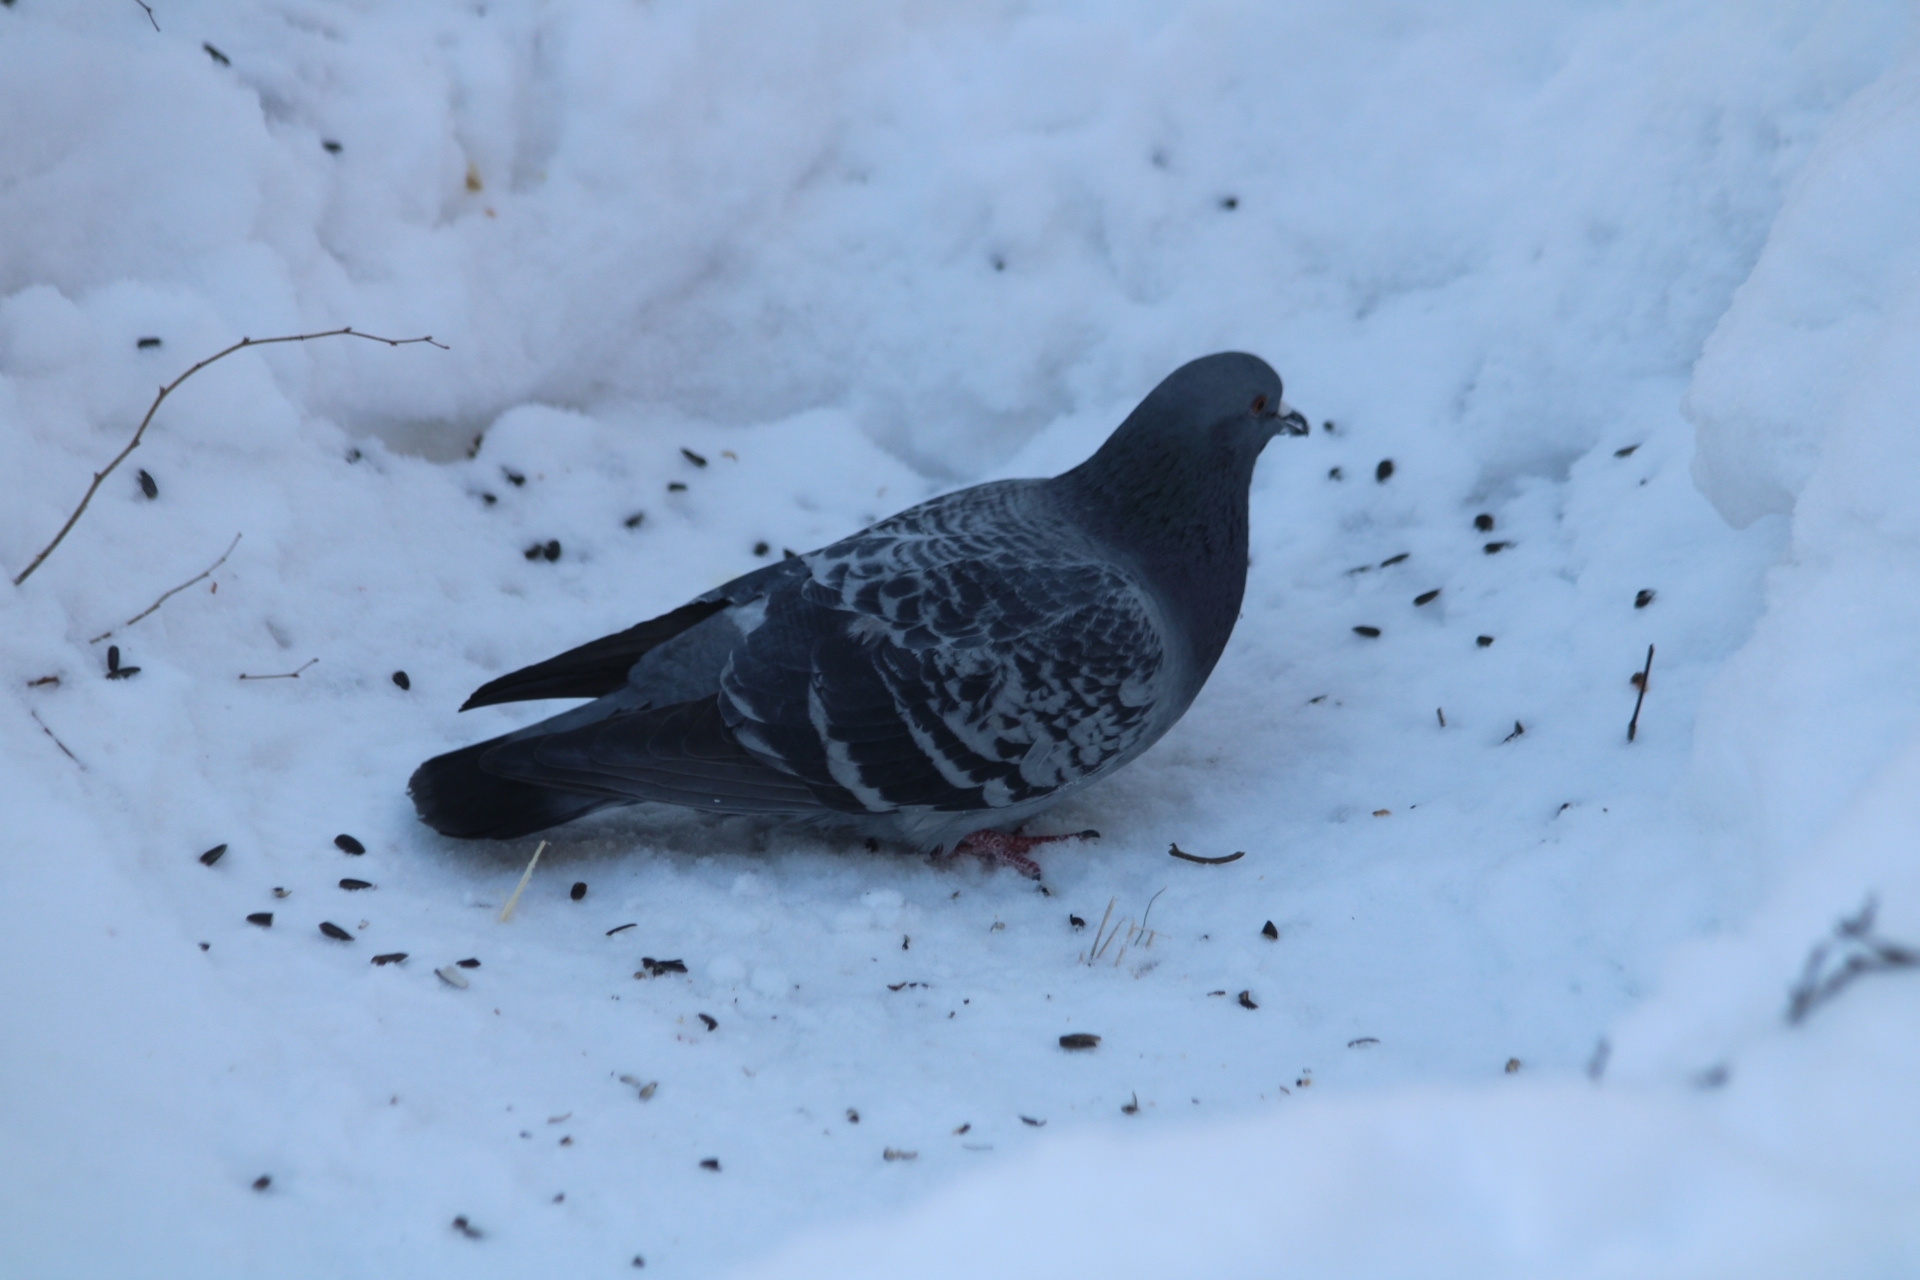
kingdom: Animalia
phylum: Chordata
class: Aves
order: Columbiformes
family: Columbidae
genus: Columba
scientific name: Columba livia
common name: Rock pigeon
